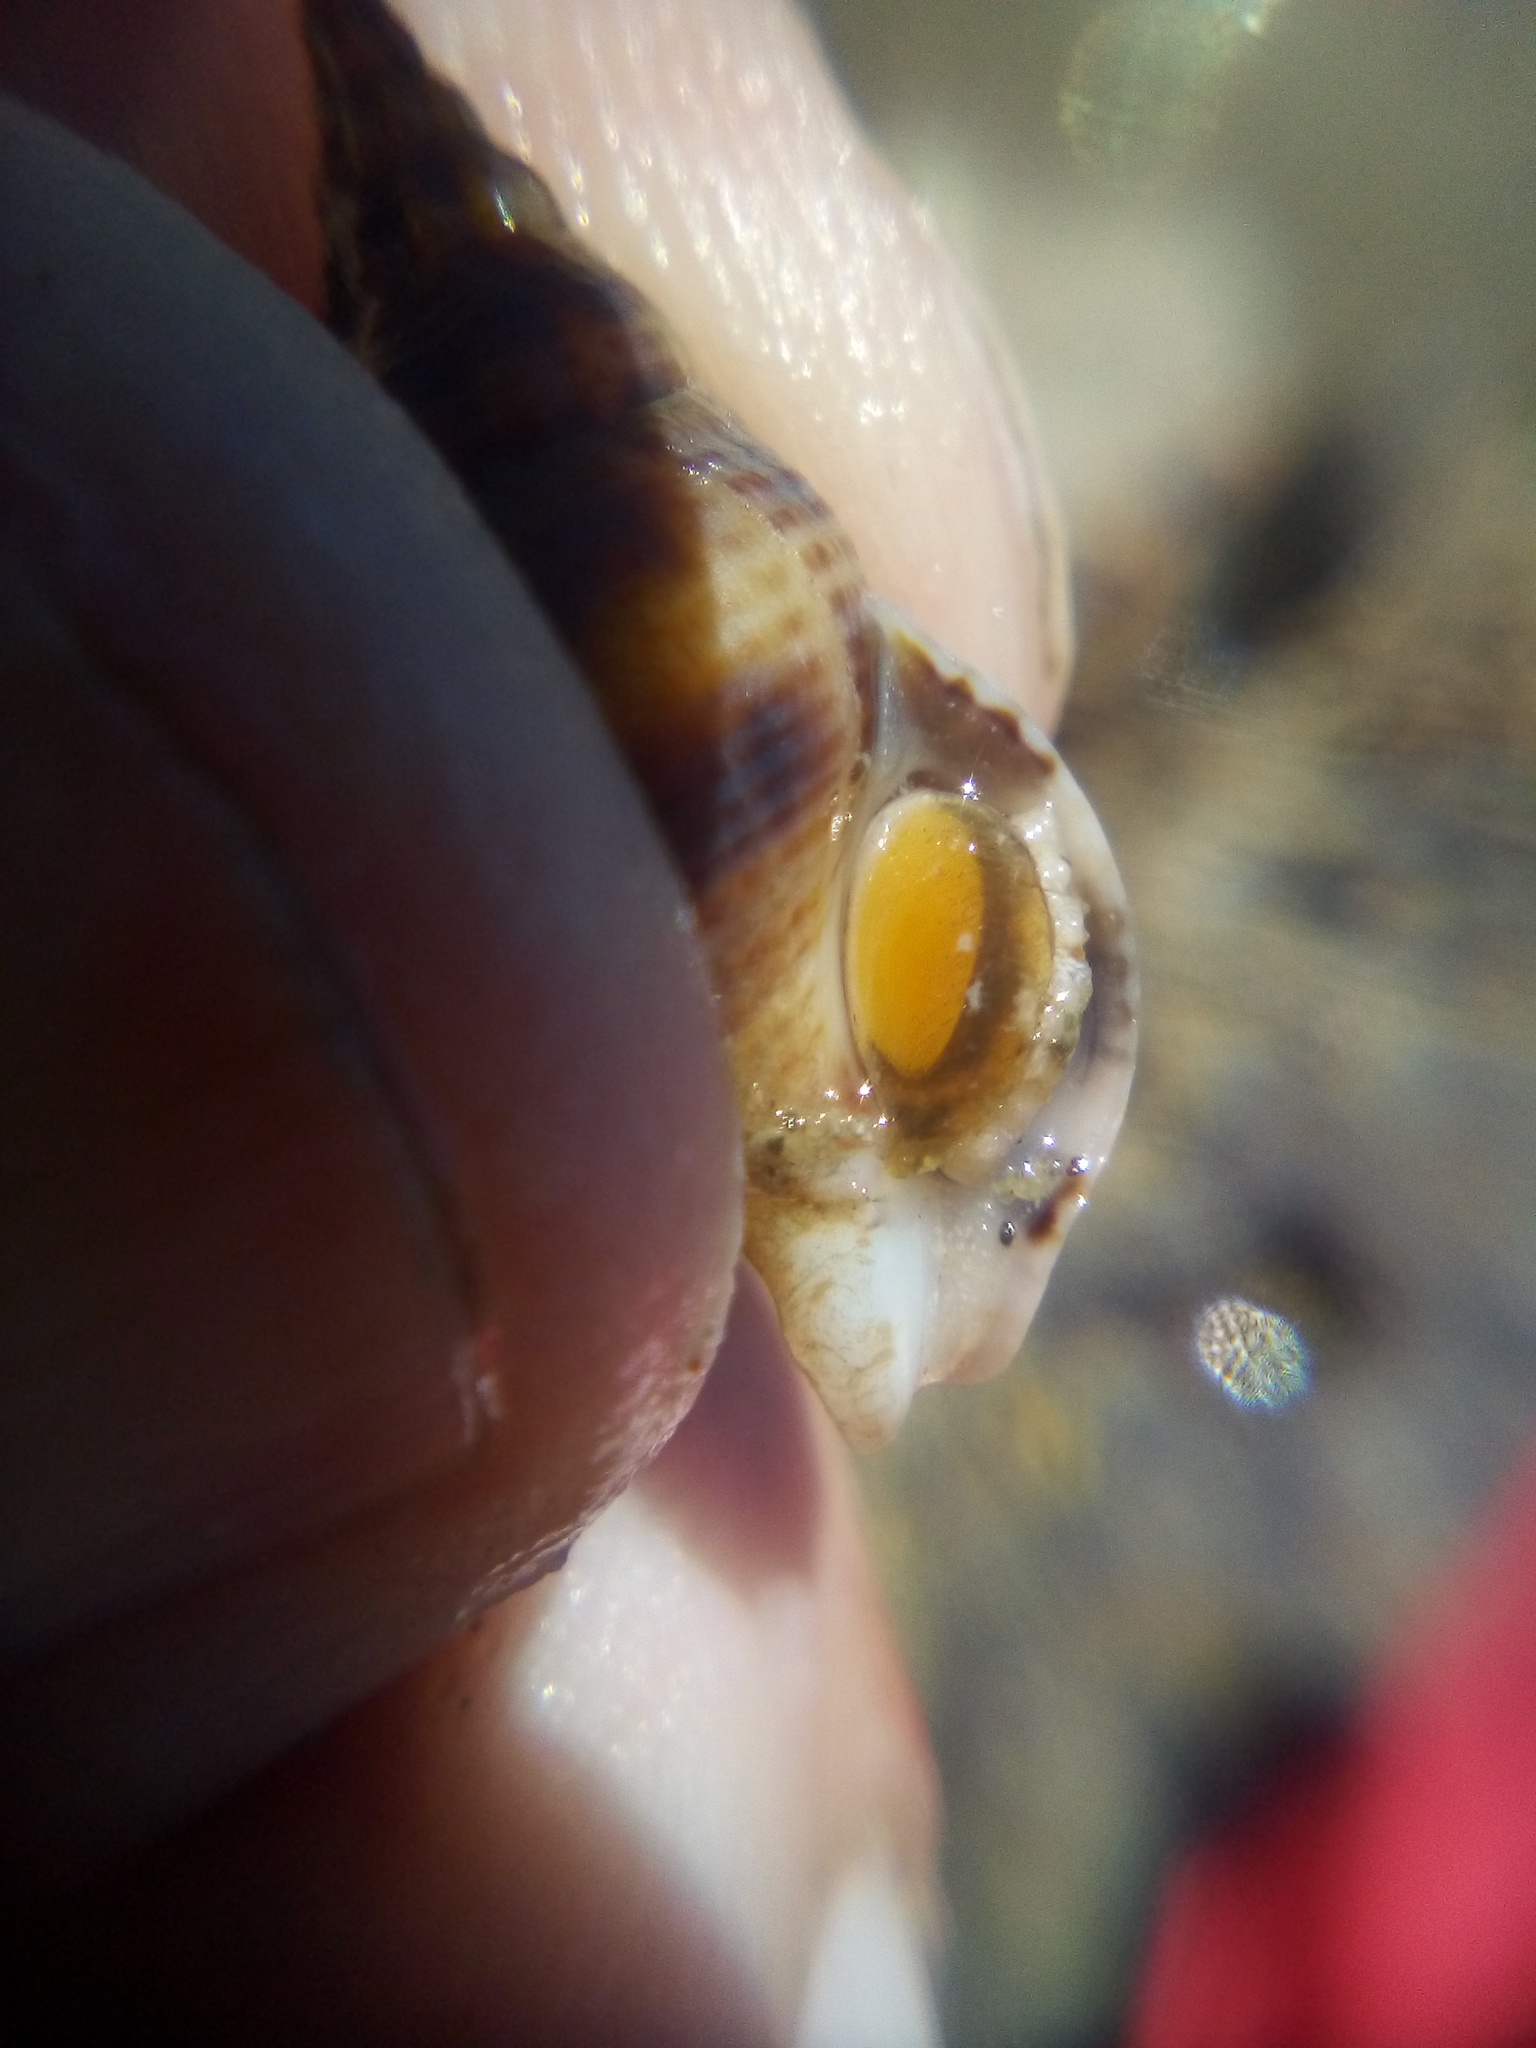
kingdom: Animalia
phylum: Mollusca
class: Gastropoda
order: Neogastropoda
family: Tudiclidae
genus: Buccinulum
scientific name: Buccinulum vittatum
